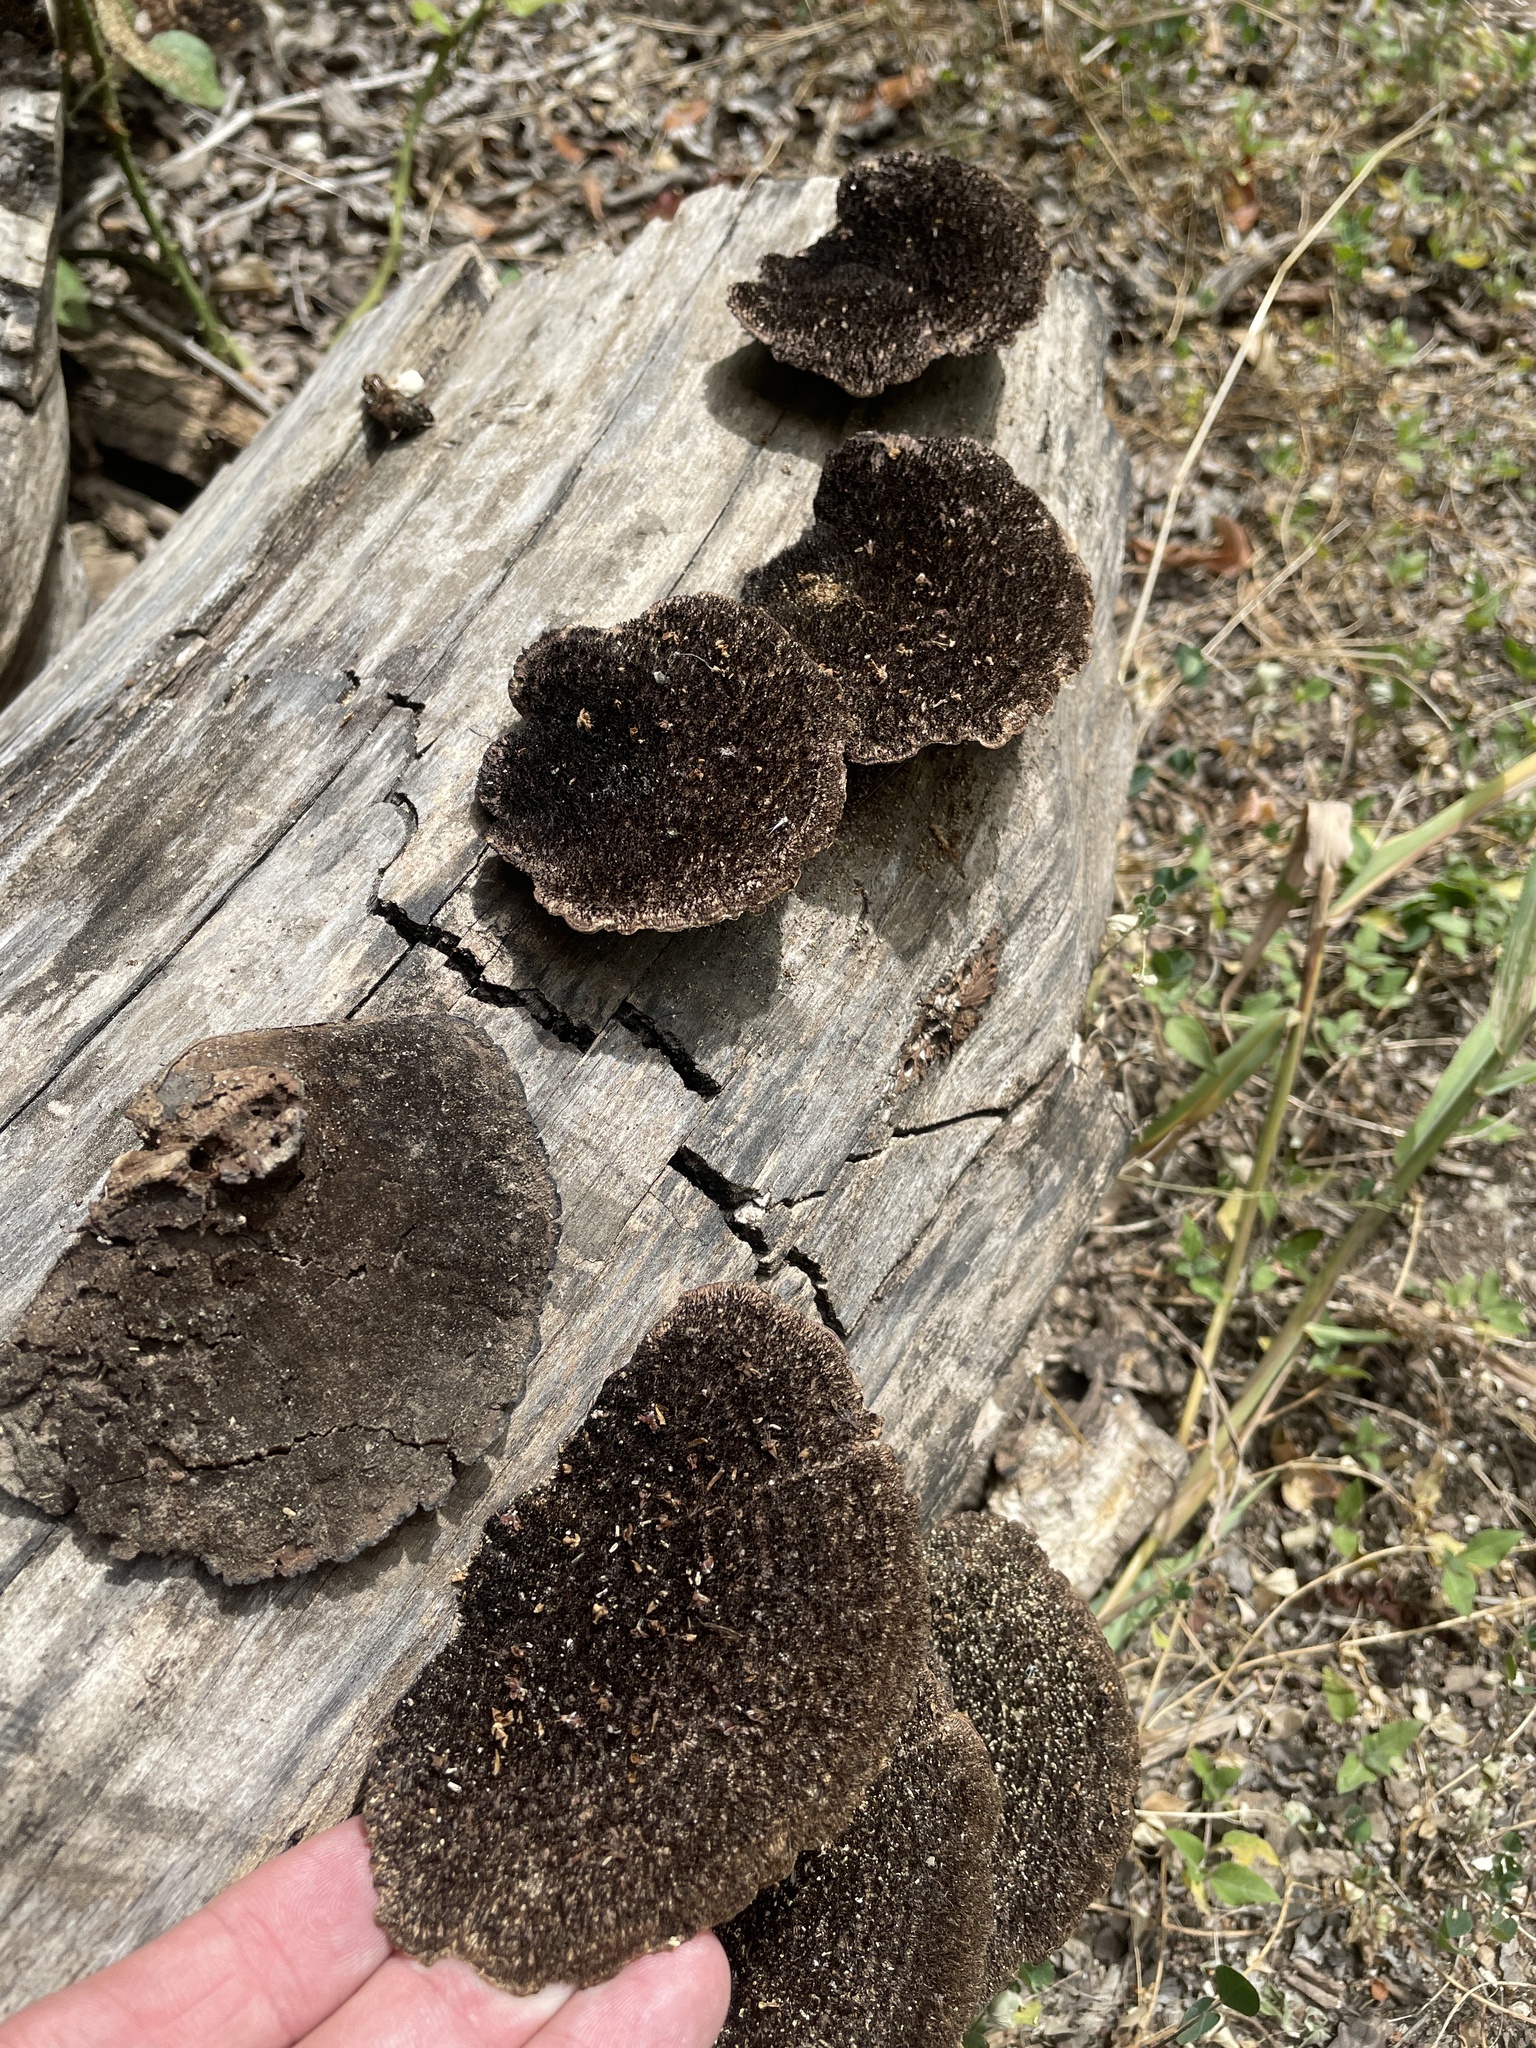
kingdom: Fungi
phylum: Basidiomycota
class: Agaricomycetes
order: Polyporales
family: Cerrenaceae
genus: Cerrena
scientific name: Cerrena hydnoides
